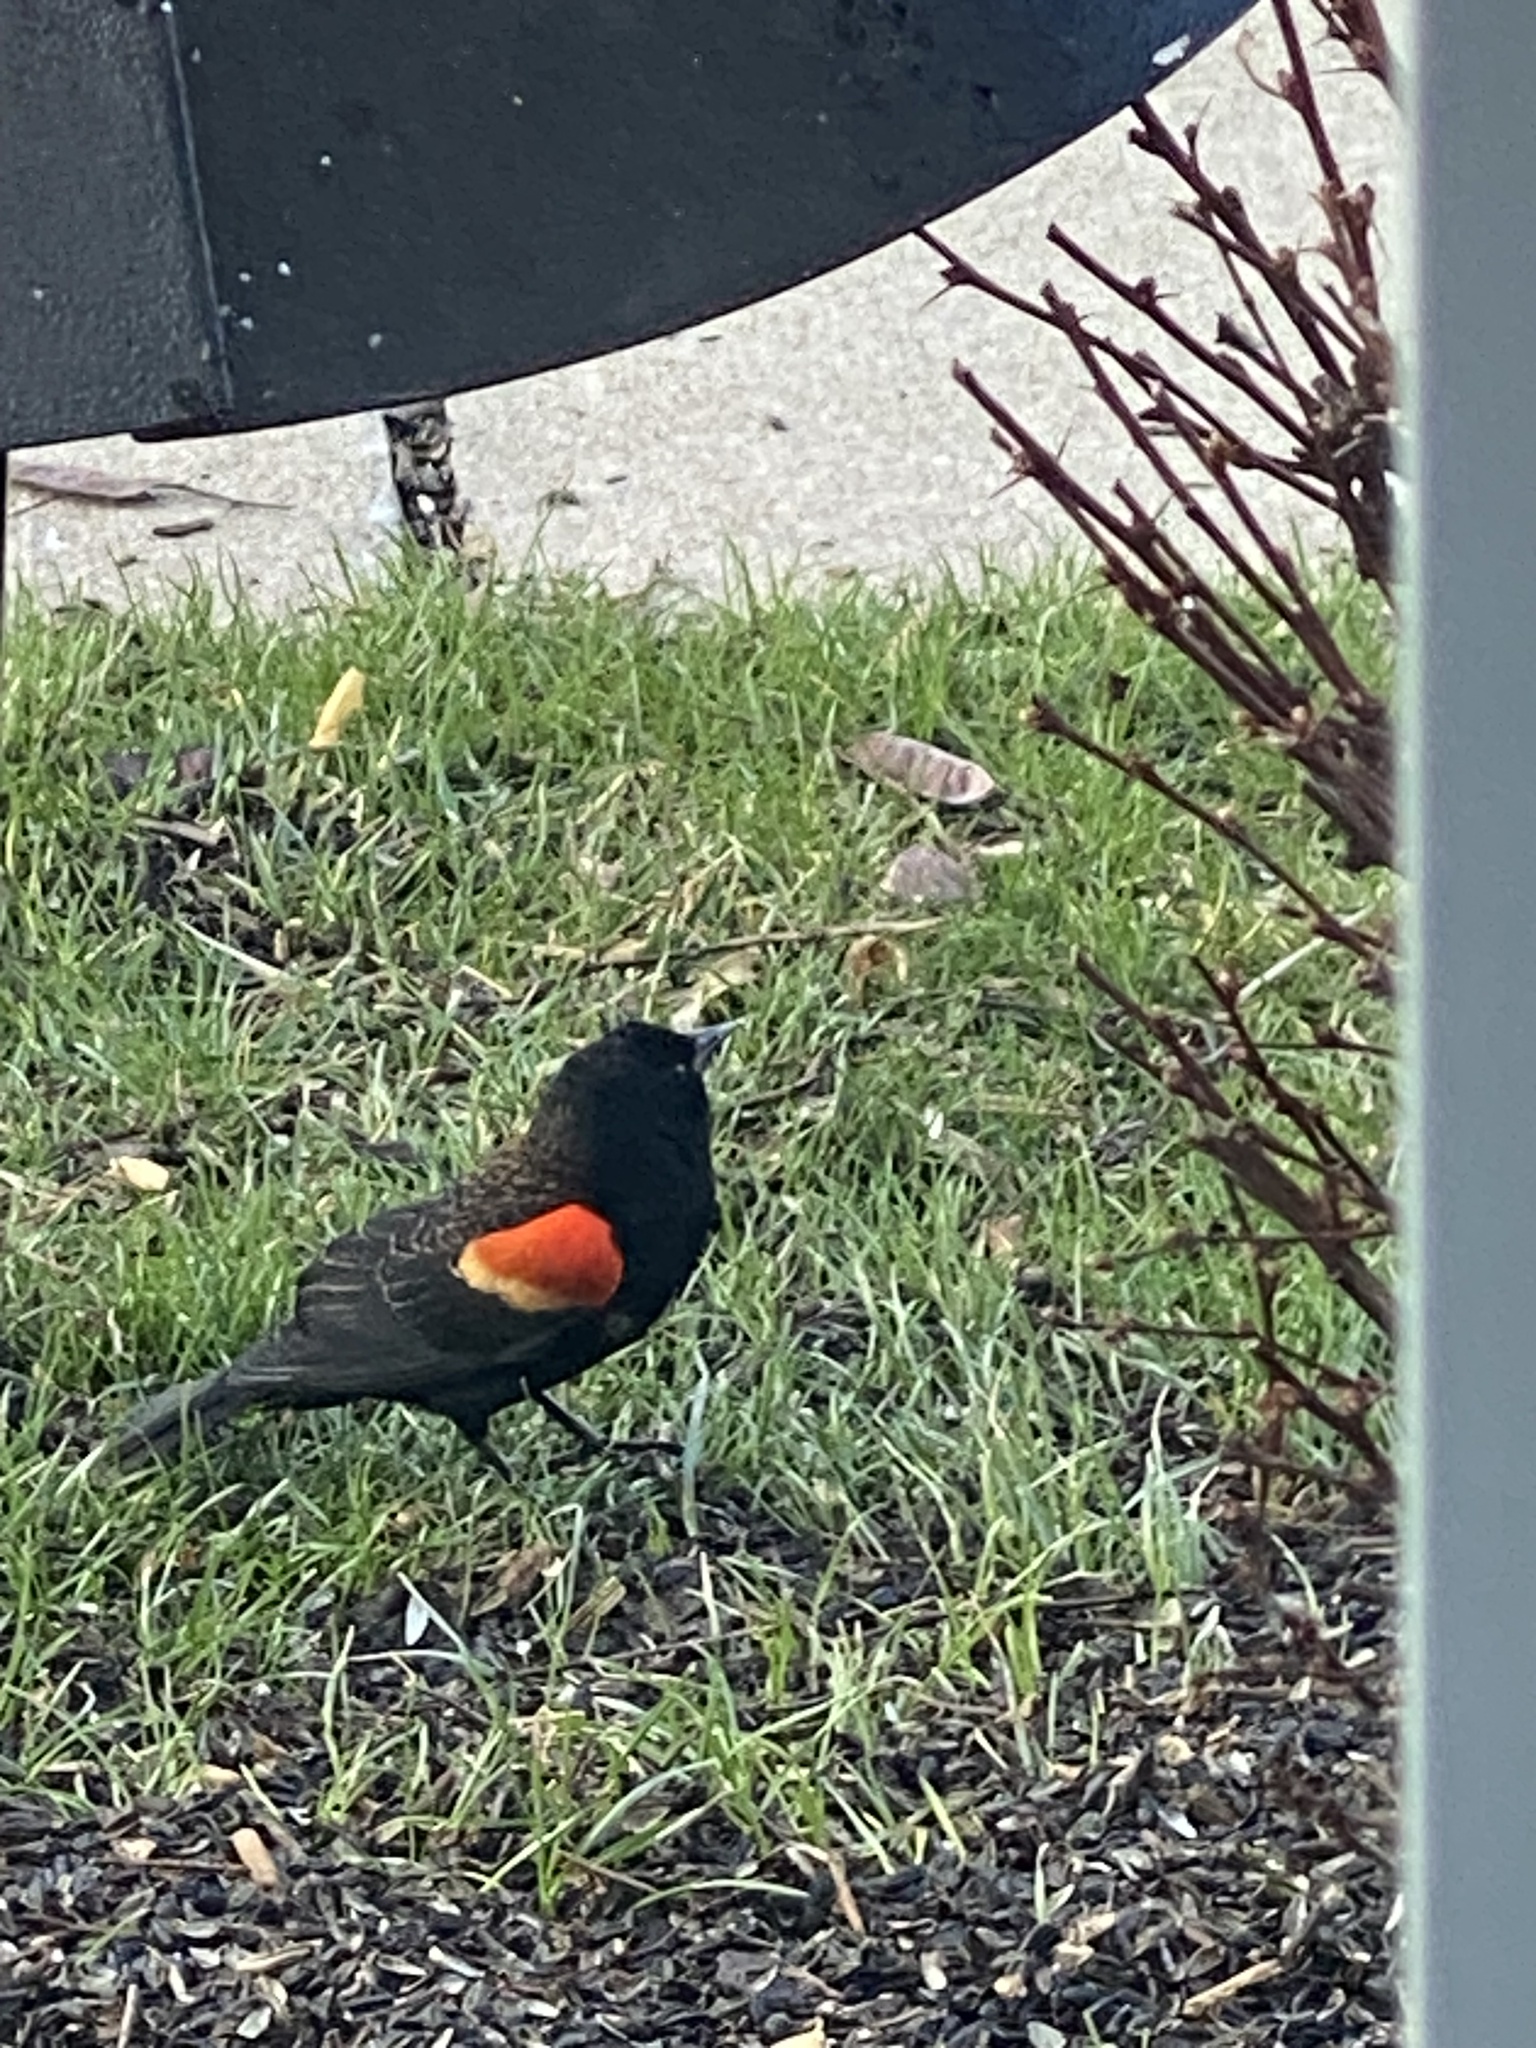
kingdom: Animalia
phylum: Chordata
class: Aves
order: Passeriformes
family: Icteridae
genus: Agelaius
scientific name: Agelaius phoeniceus
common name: Red-winged blackbird
